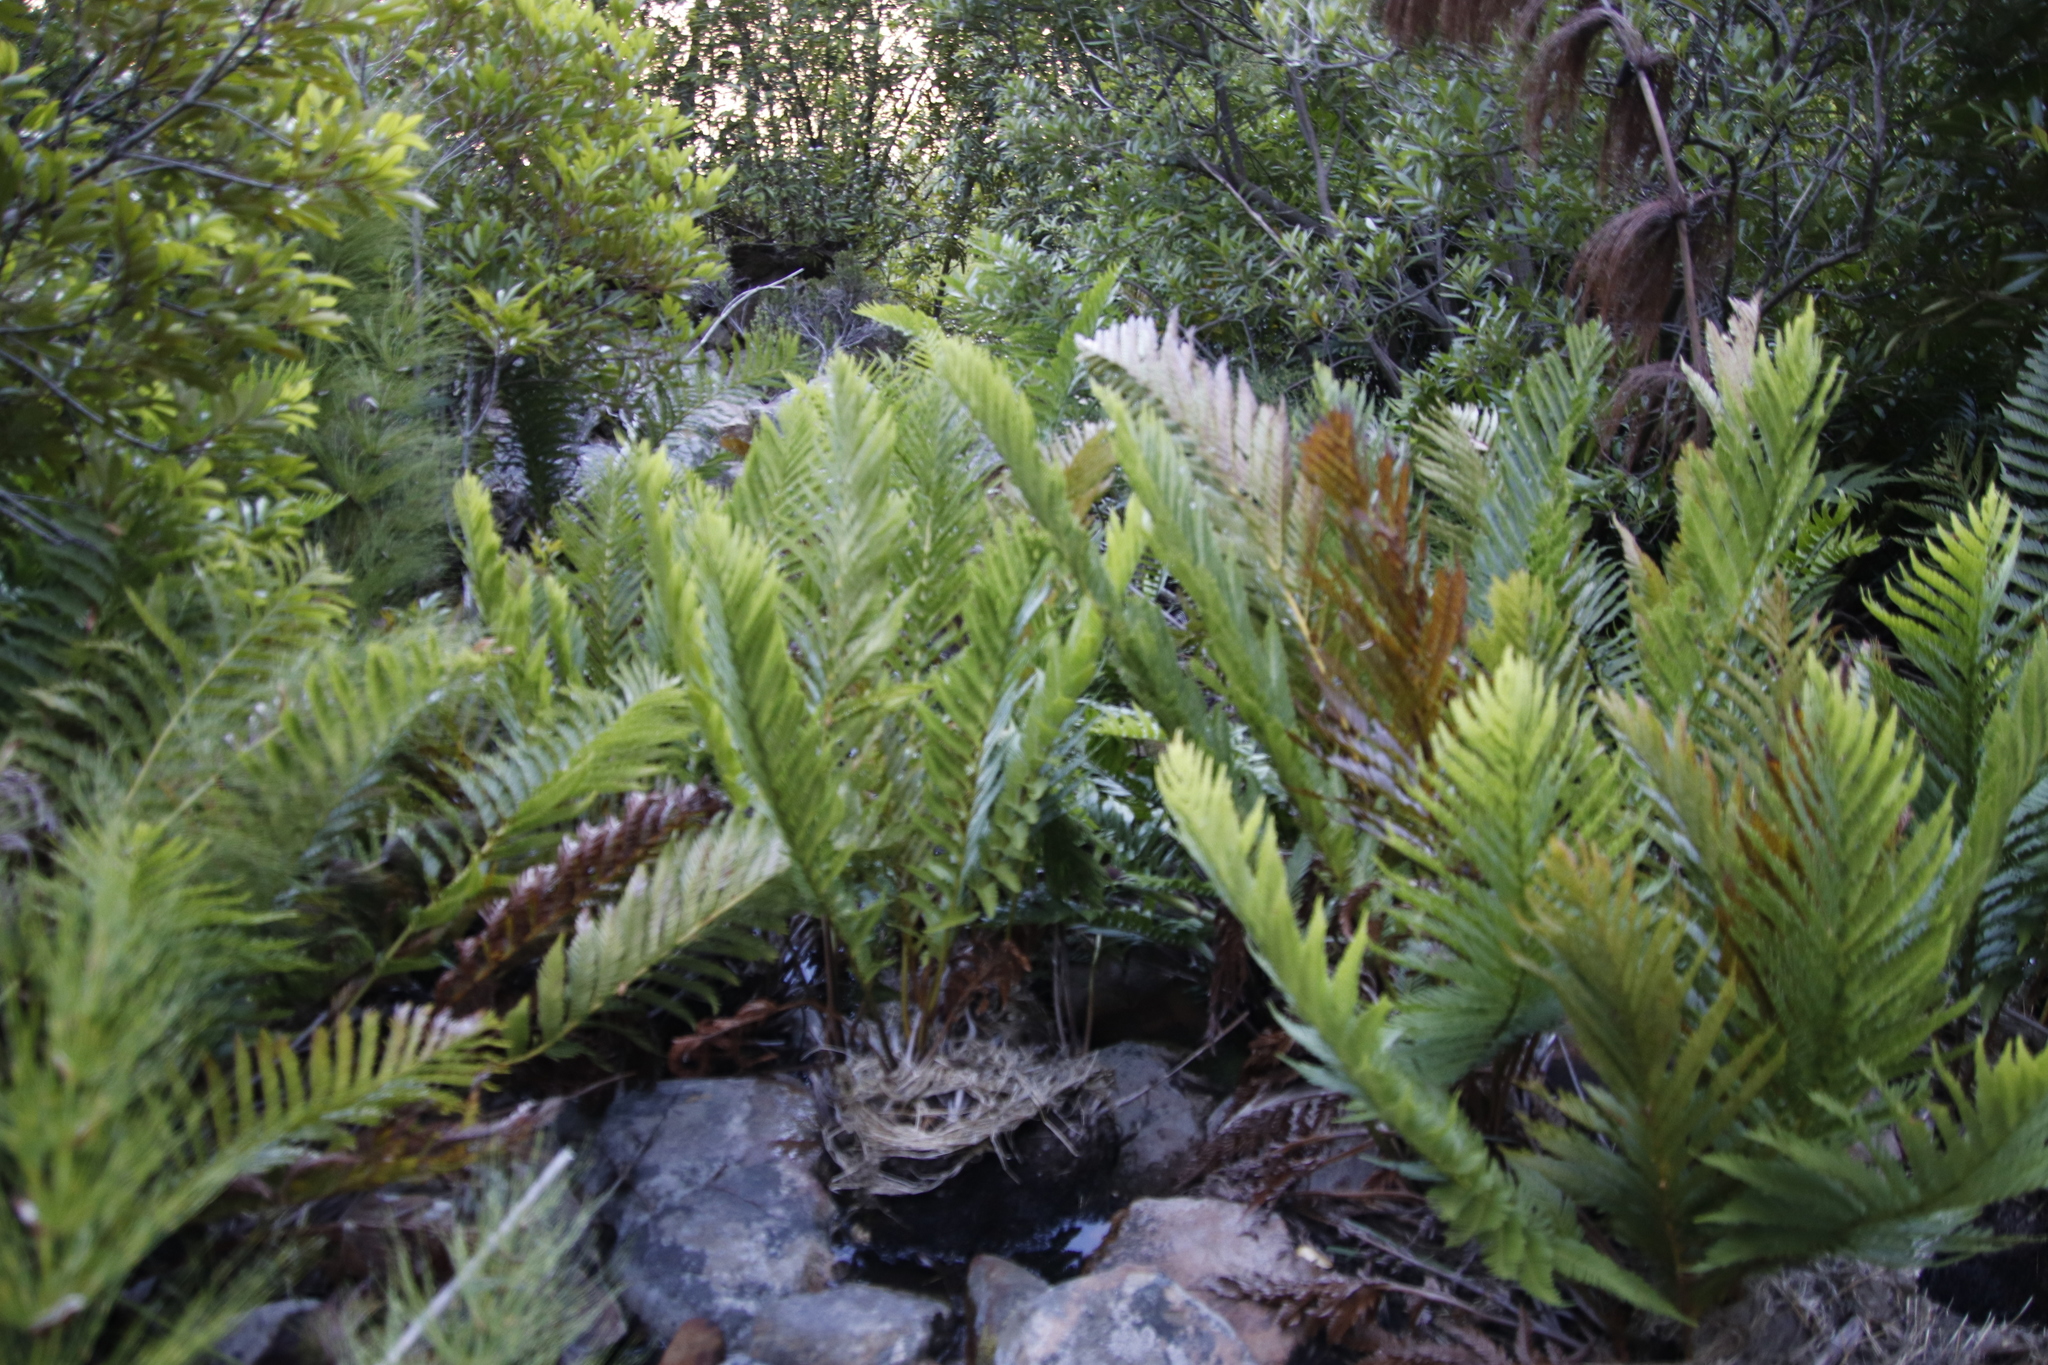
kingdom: Plantae
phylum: Tracheophyta
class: Polypodiopsida
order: Osmundales
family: Osmundaceae
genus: Todea
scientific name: Todea barbara
